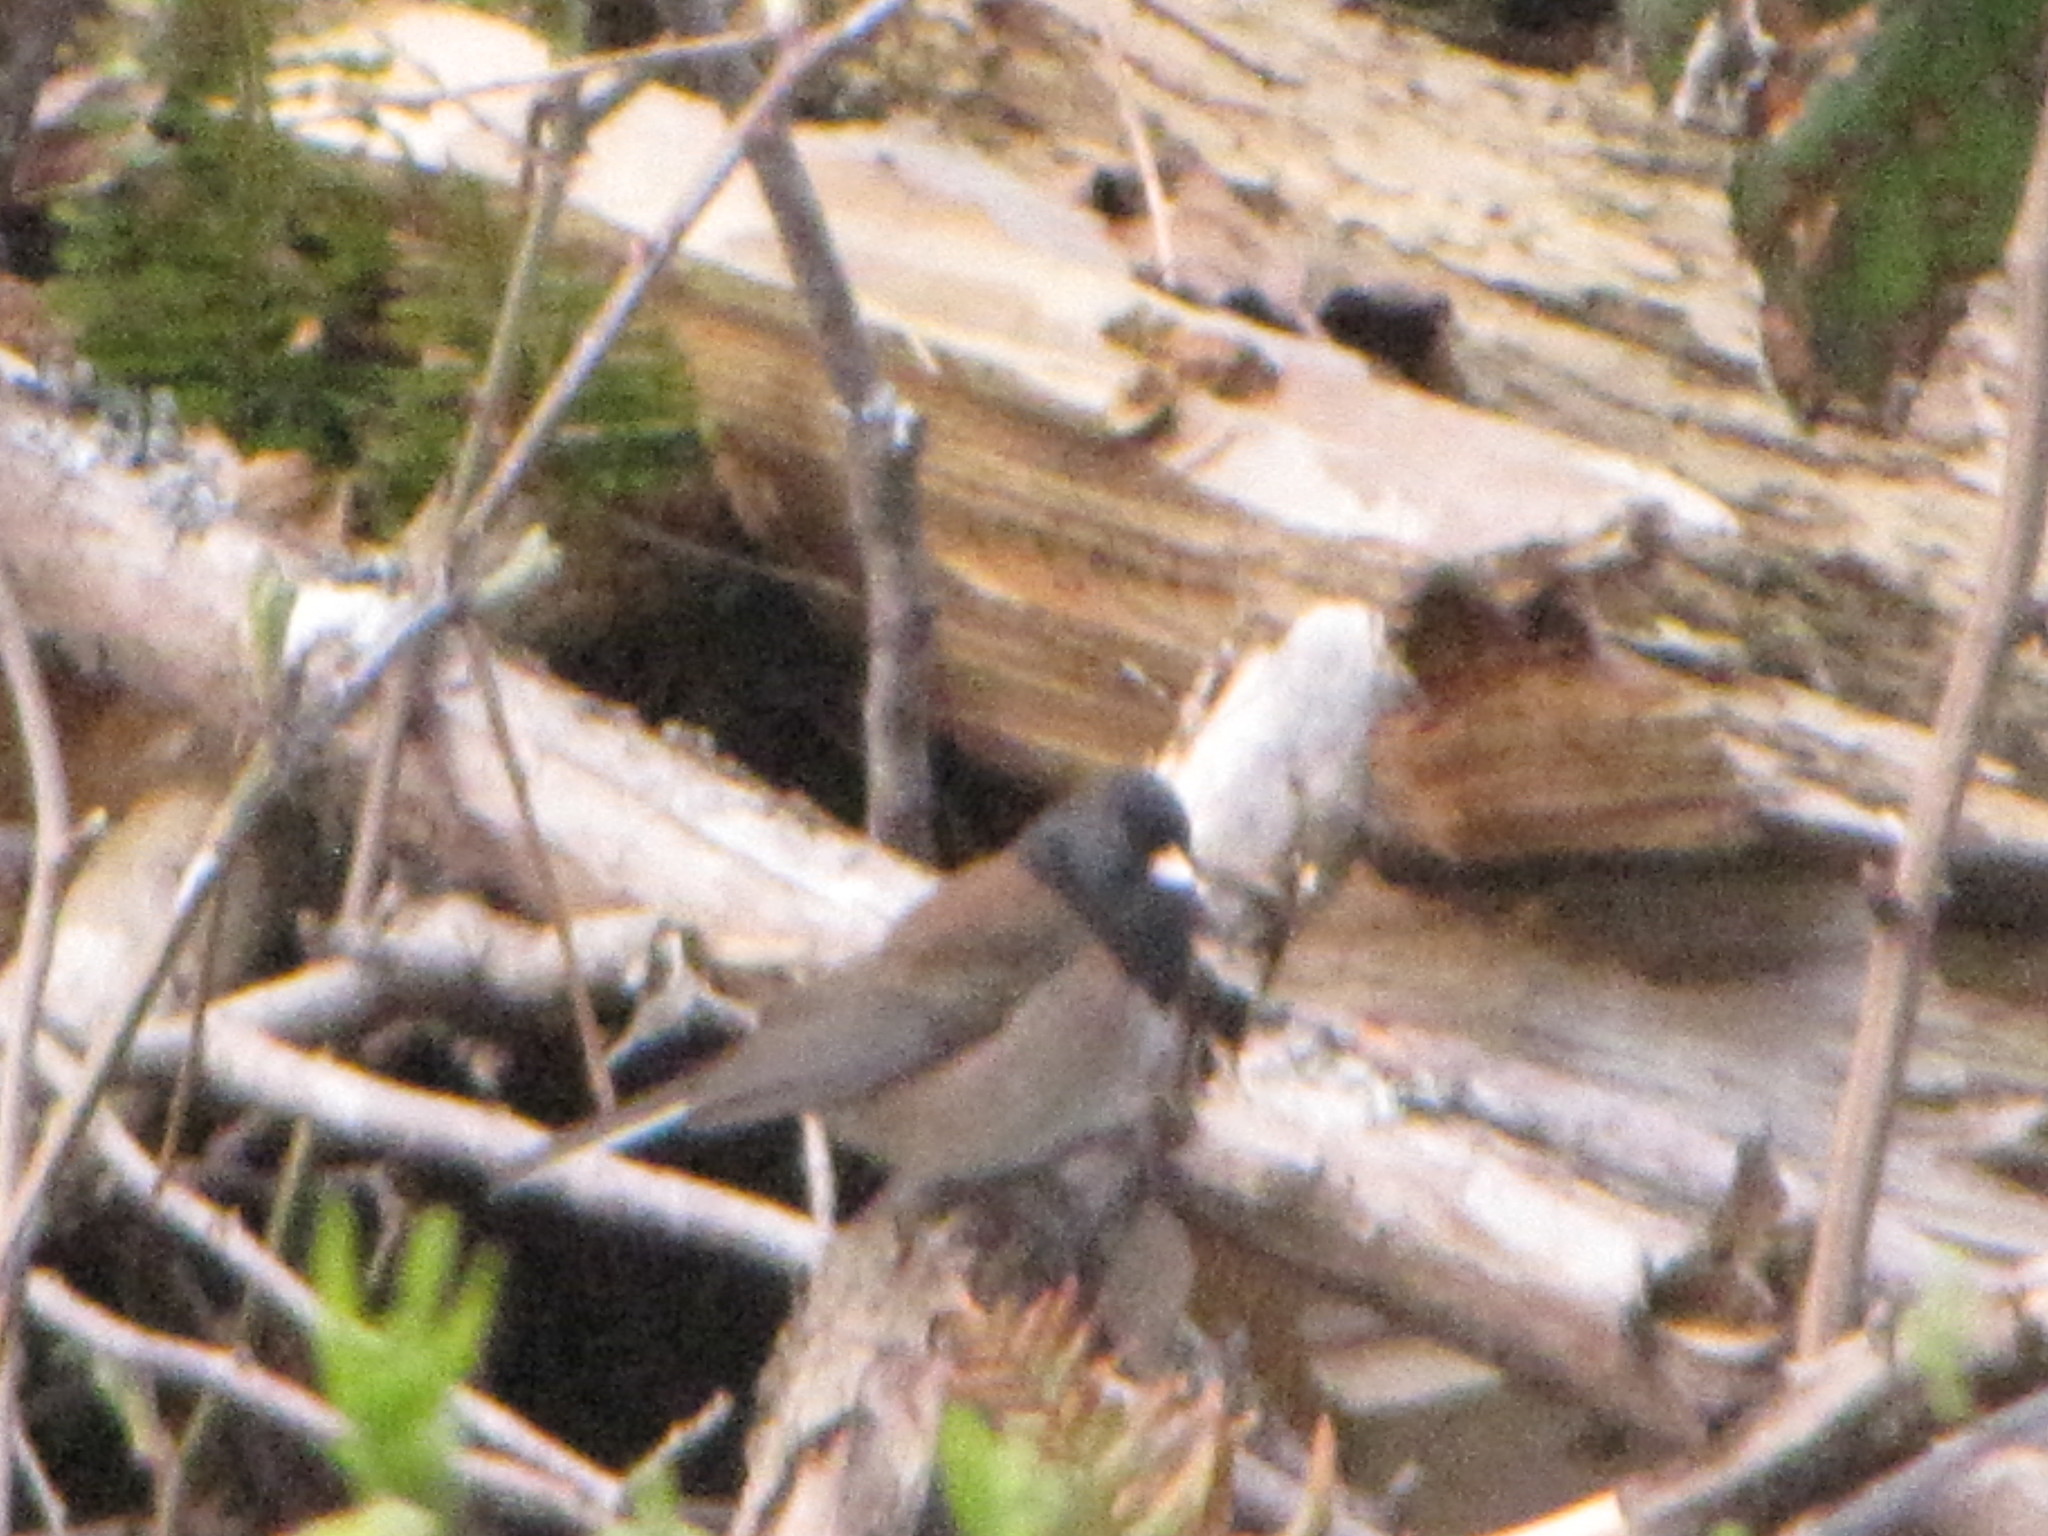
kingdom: Animalia
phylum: Chordata
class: Aves
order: Passeriformes
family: Passerellidae
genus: Junco
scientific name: Junco hyemalis
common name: Dark-eyed junco
